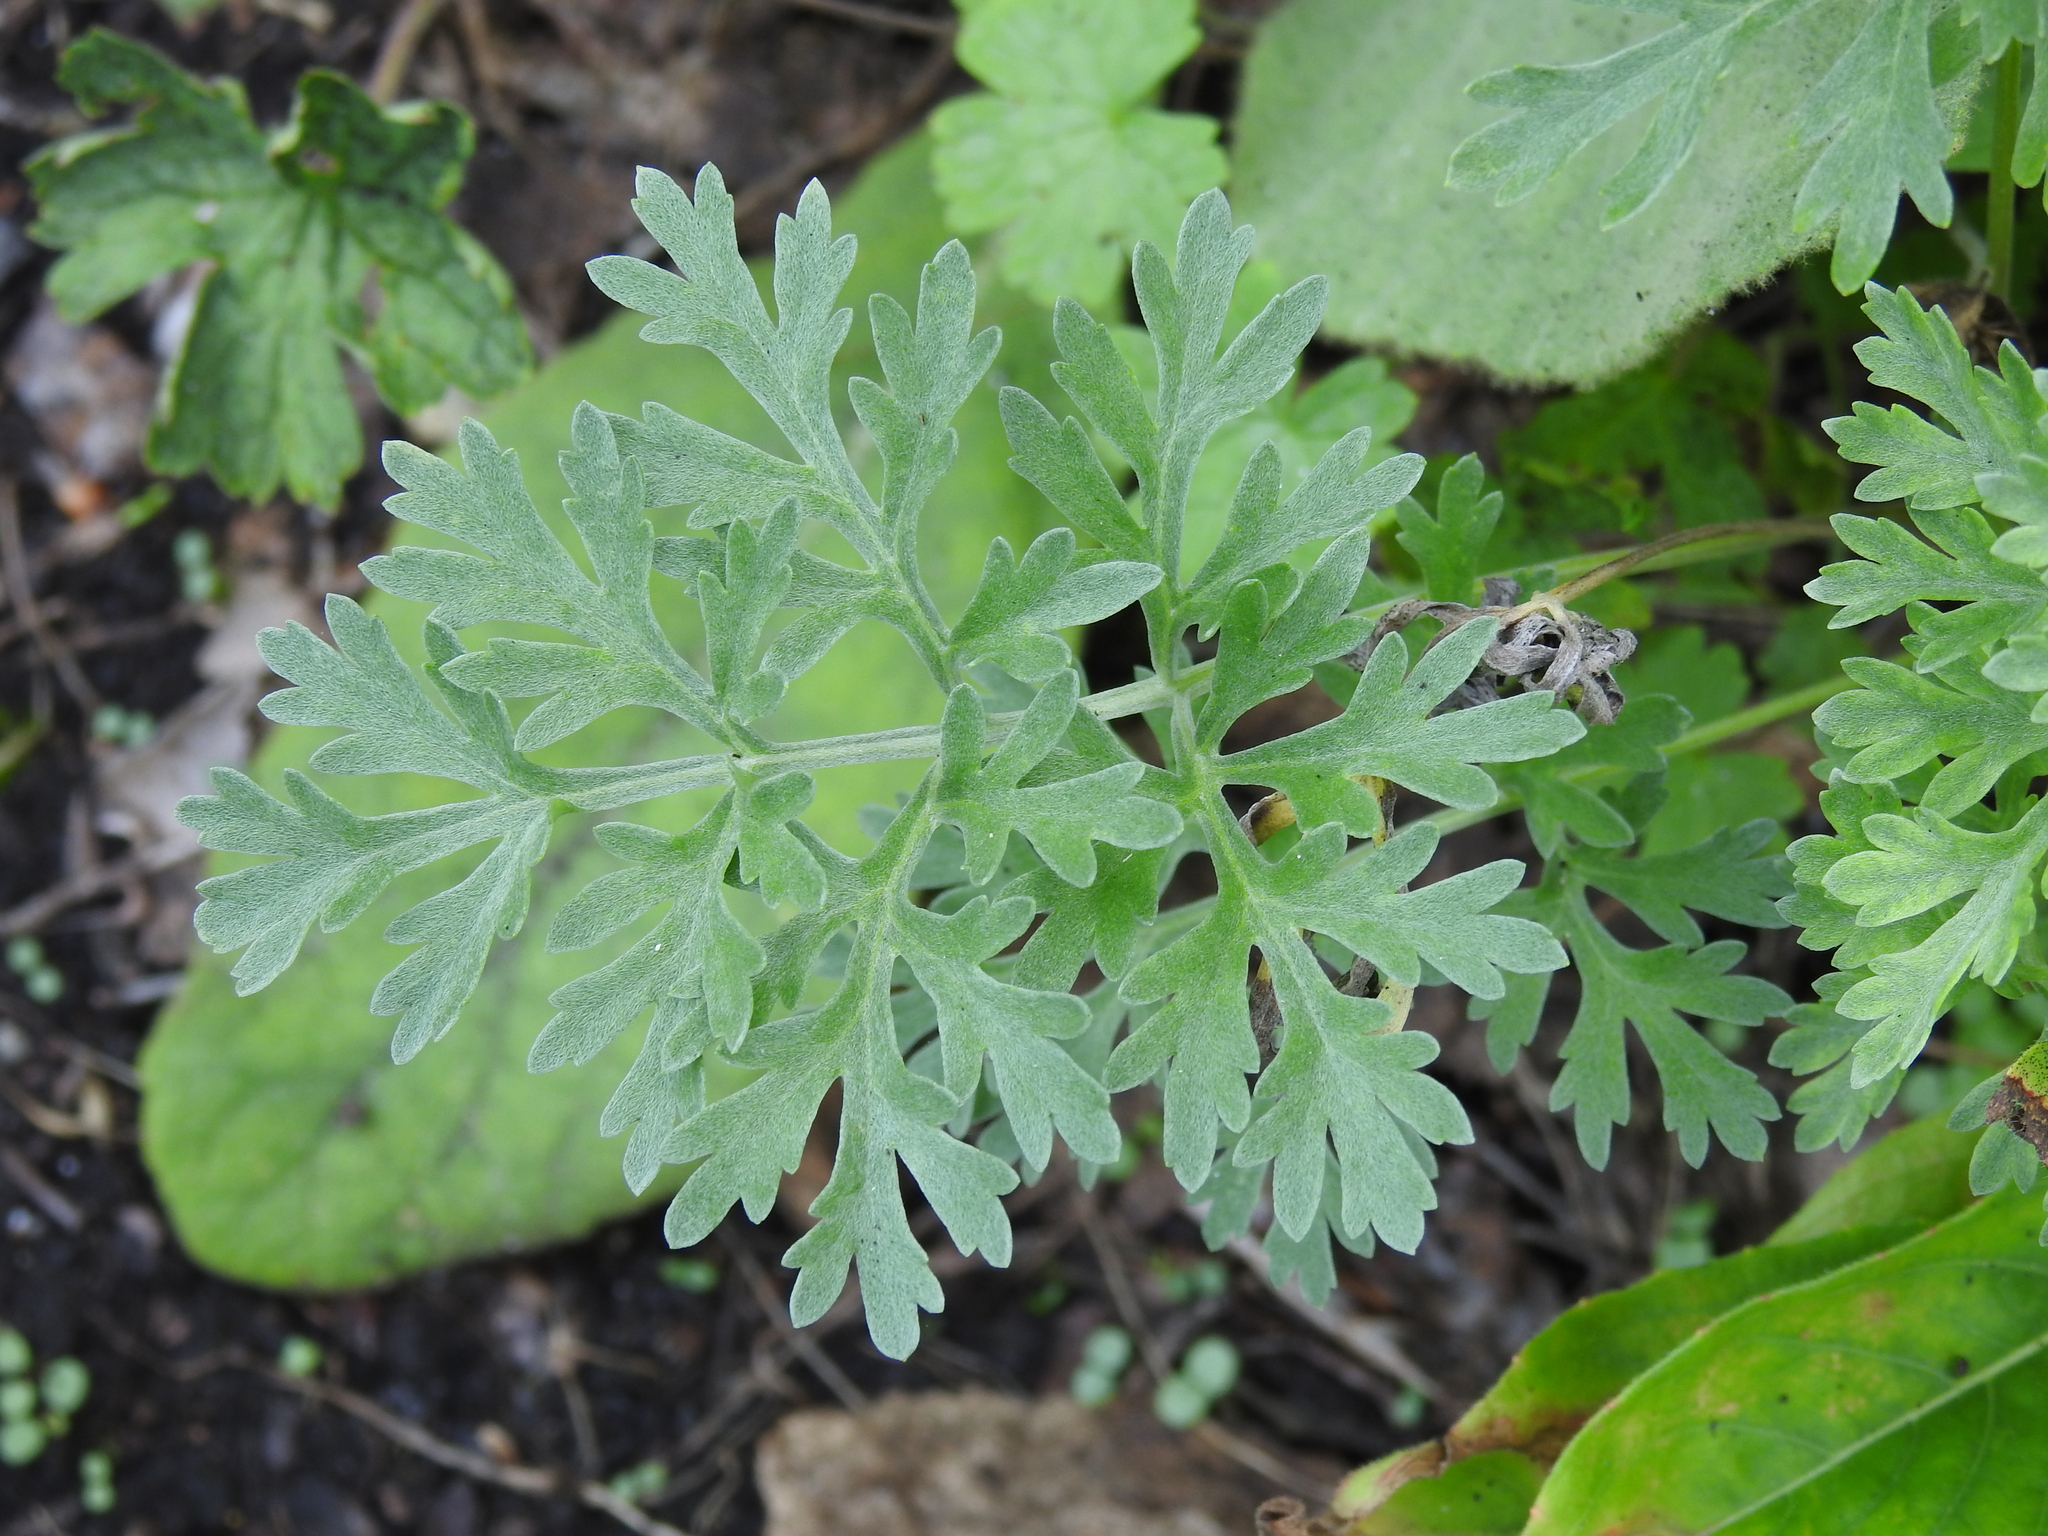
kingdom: Plantae
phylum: Tracheophyta
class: Magnoliopsida
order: Asterales
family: Asteraceae
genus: Artemisia
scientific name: Artemisia absinthium
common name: Wormwood
